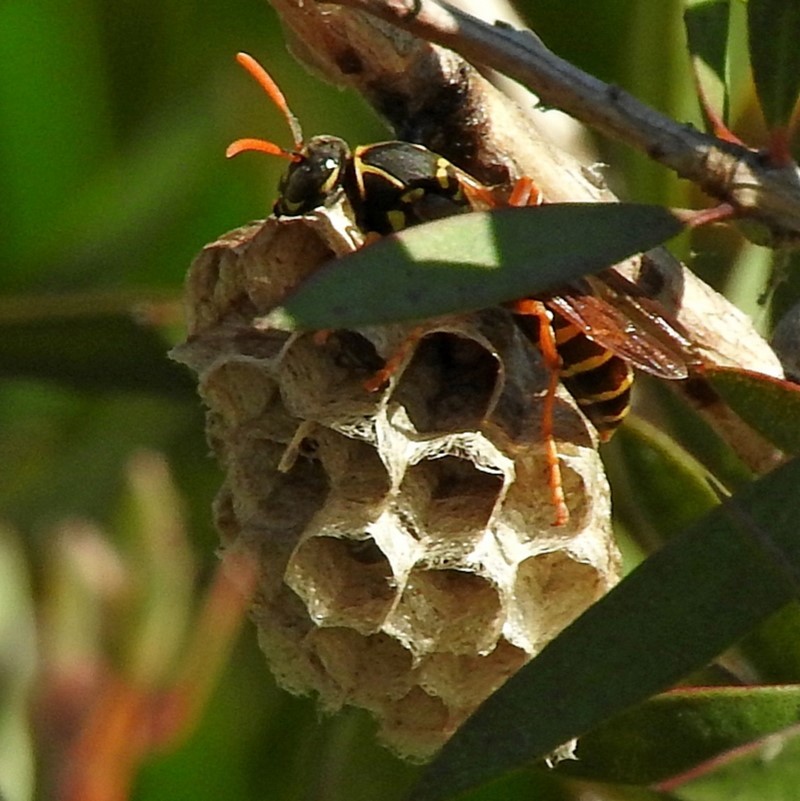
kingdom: Animalia
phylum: Arthropoda
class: Insecta
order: Hymenoptera
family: Eumenidae
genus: Polistes
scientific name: Polistes chinensis
